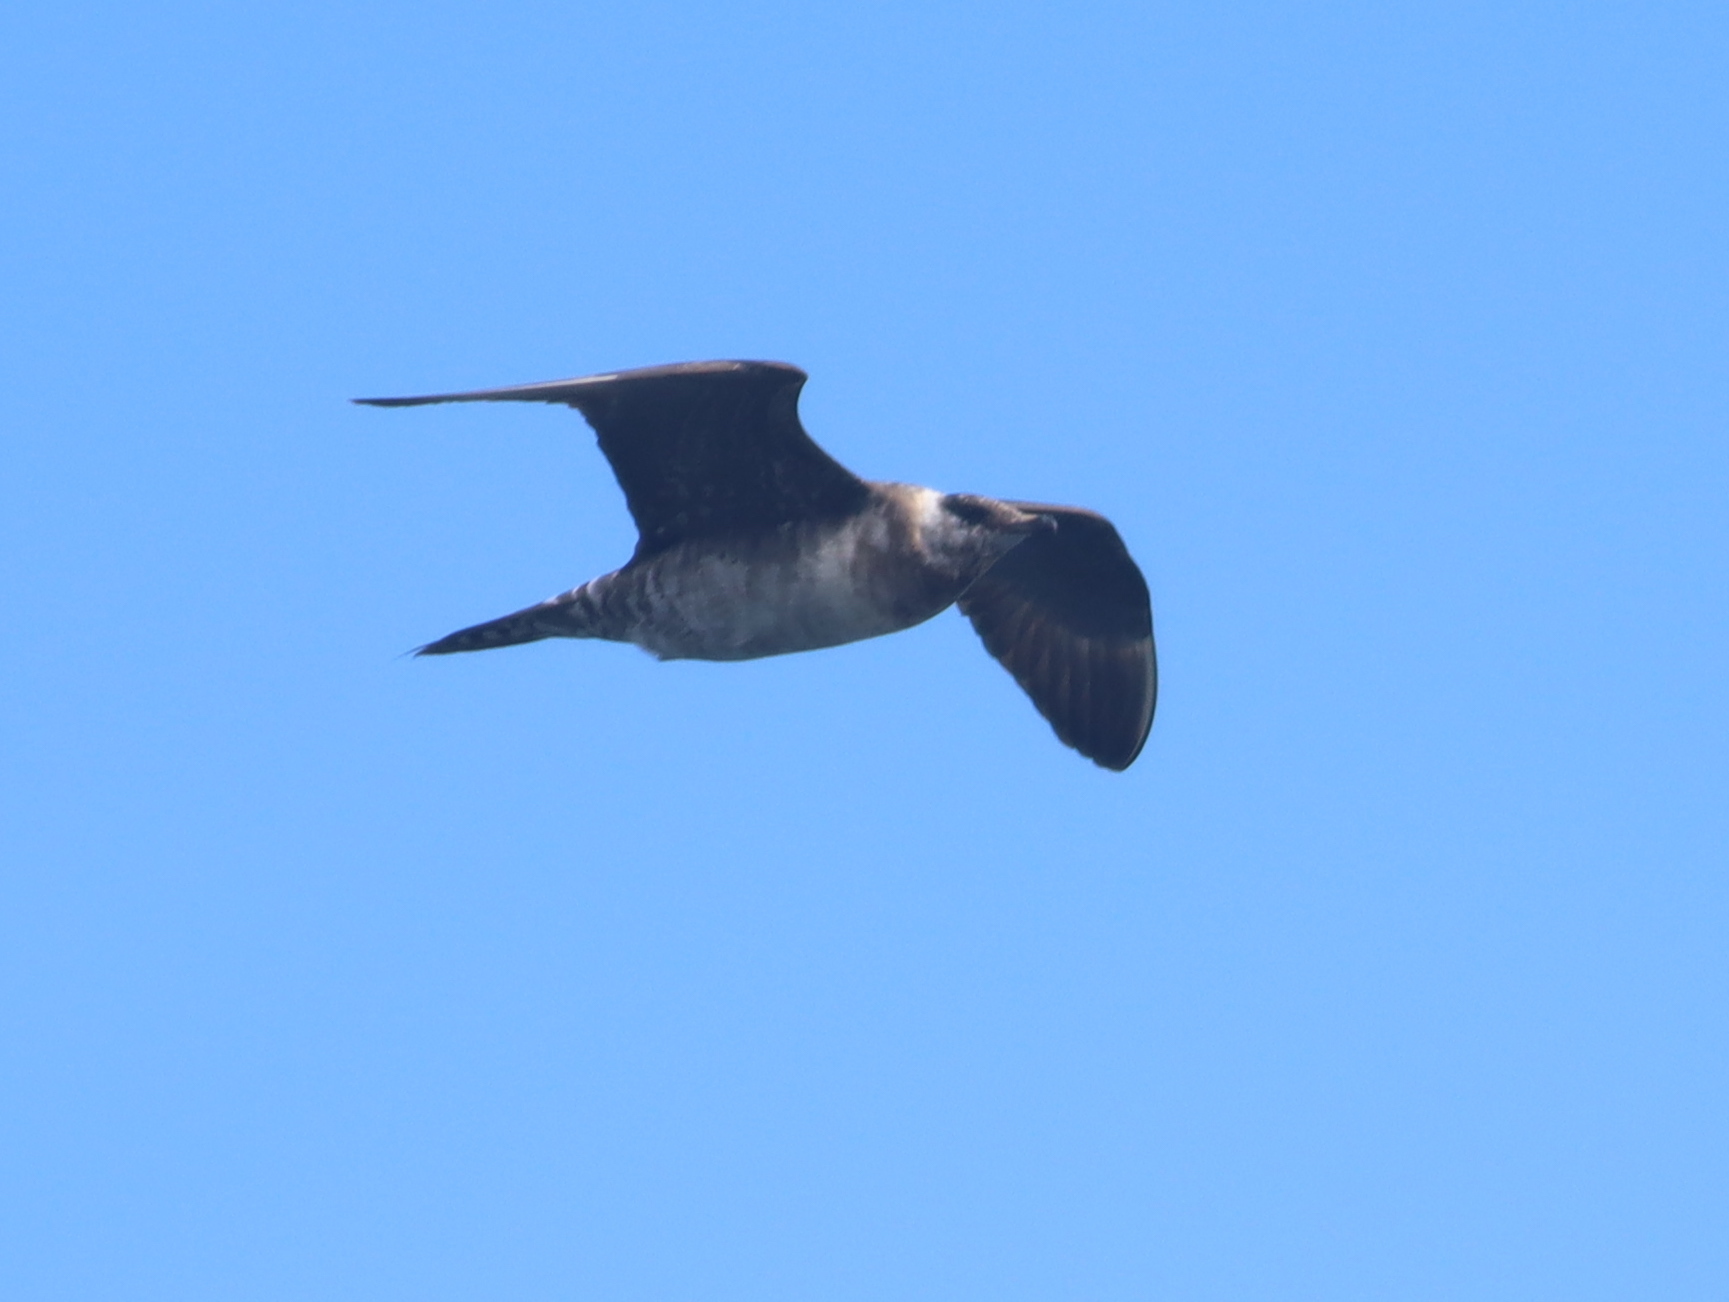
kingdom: Animalia
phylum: Chordata
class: Aves
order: Charadriiformes
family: Stercorariidae
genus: Stercorarius
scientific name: Stercorarius longicaudus
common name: Long-tailed jaeger
